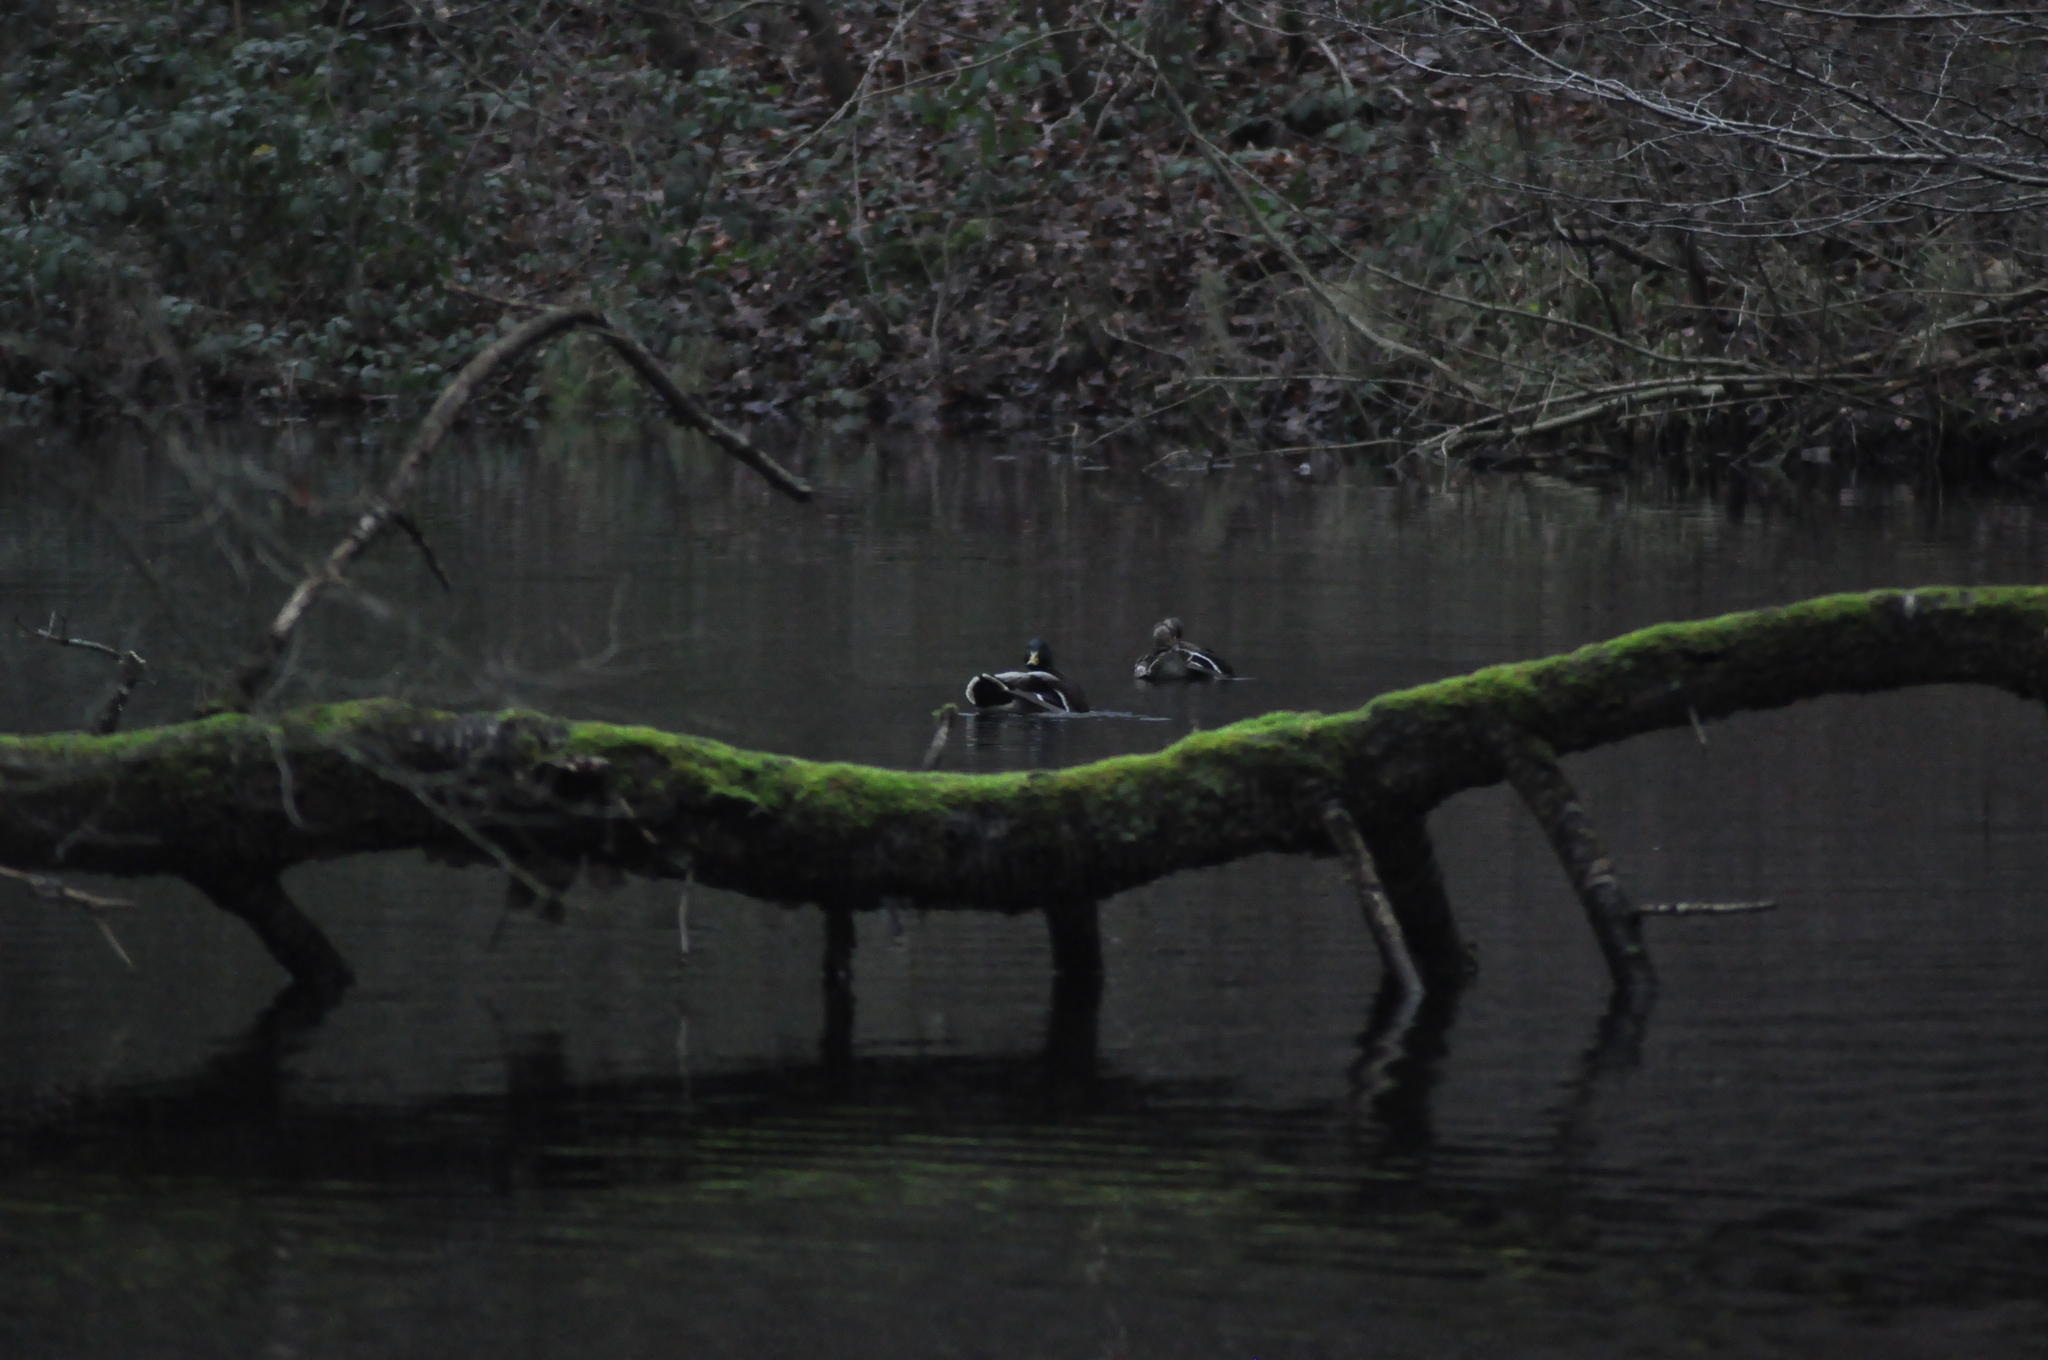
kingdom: Animalia
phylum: Chordata
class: Aves
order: Anseriformes
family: Anatidae
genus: Anas
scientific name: Anas platyrhynchos
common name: Mallard
